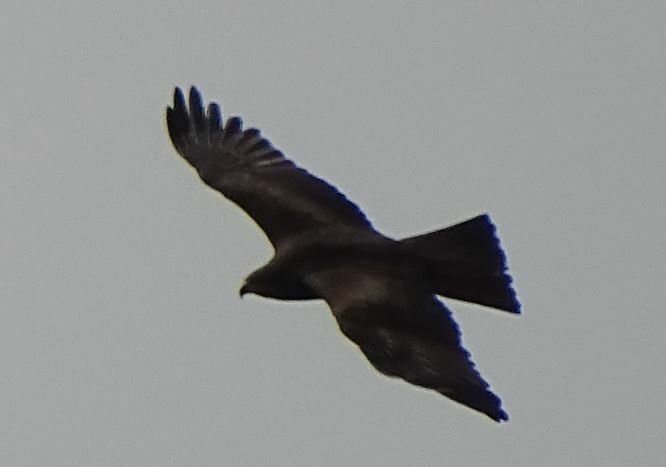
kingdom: Animalia
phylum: Chordata
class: Aves
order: Accipitriformes
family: Accipitridae
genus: Milvus
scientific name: Milvus migrans
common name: Black kite
